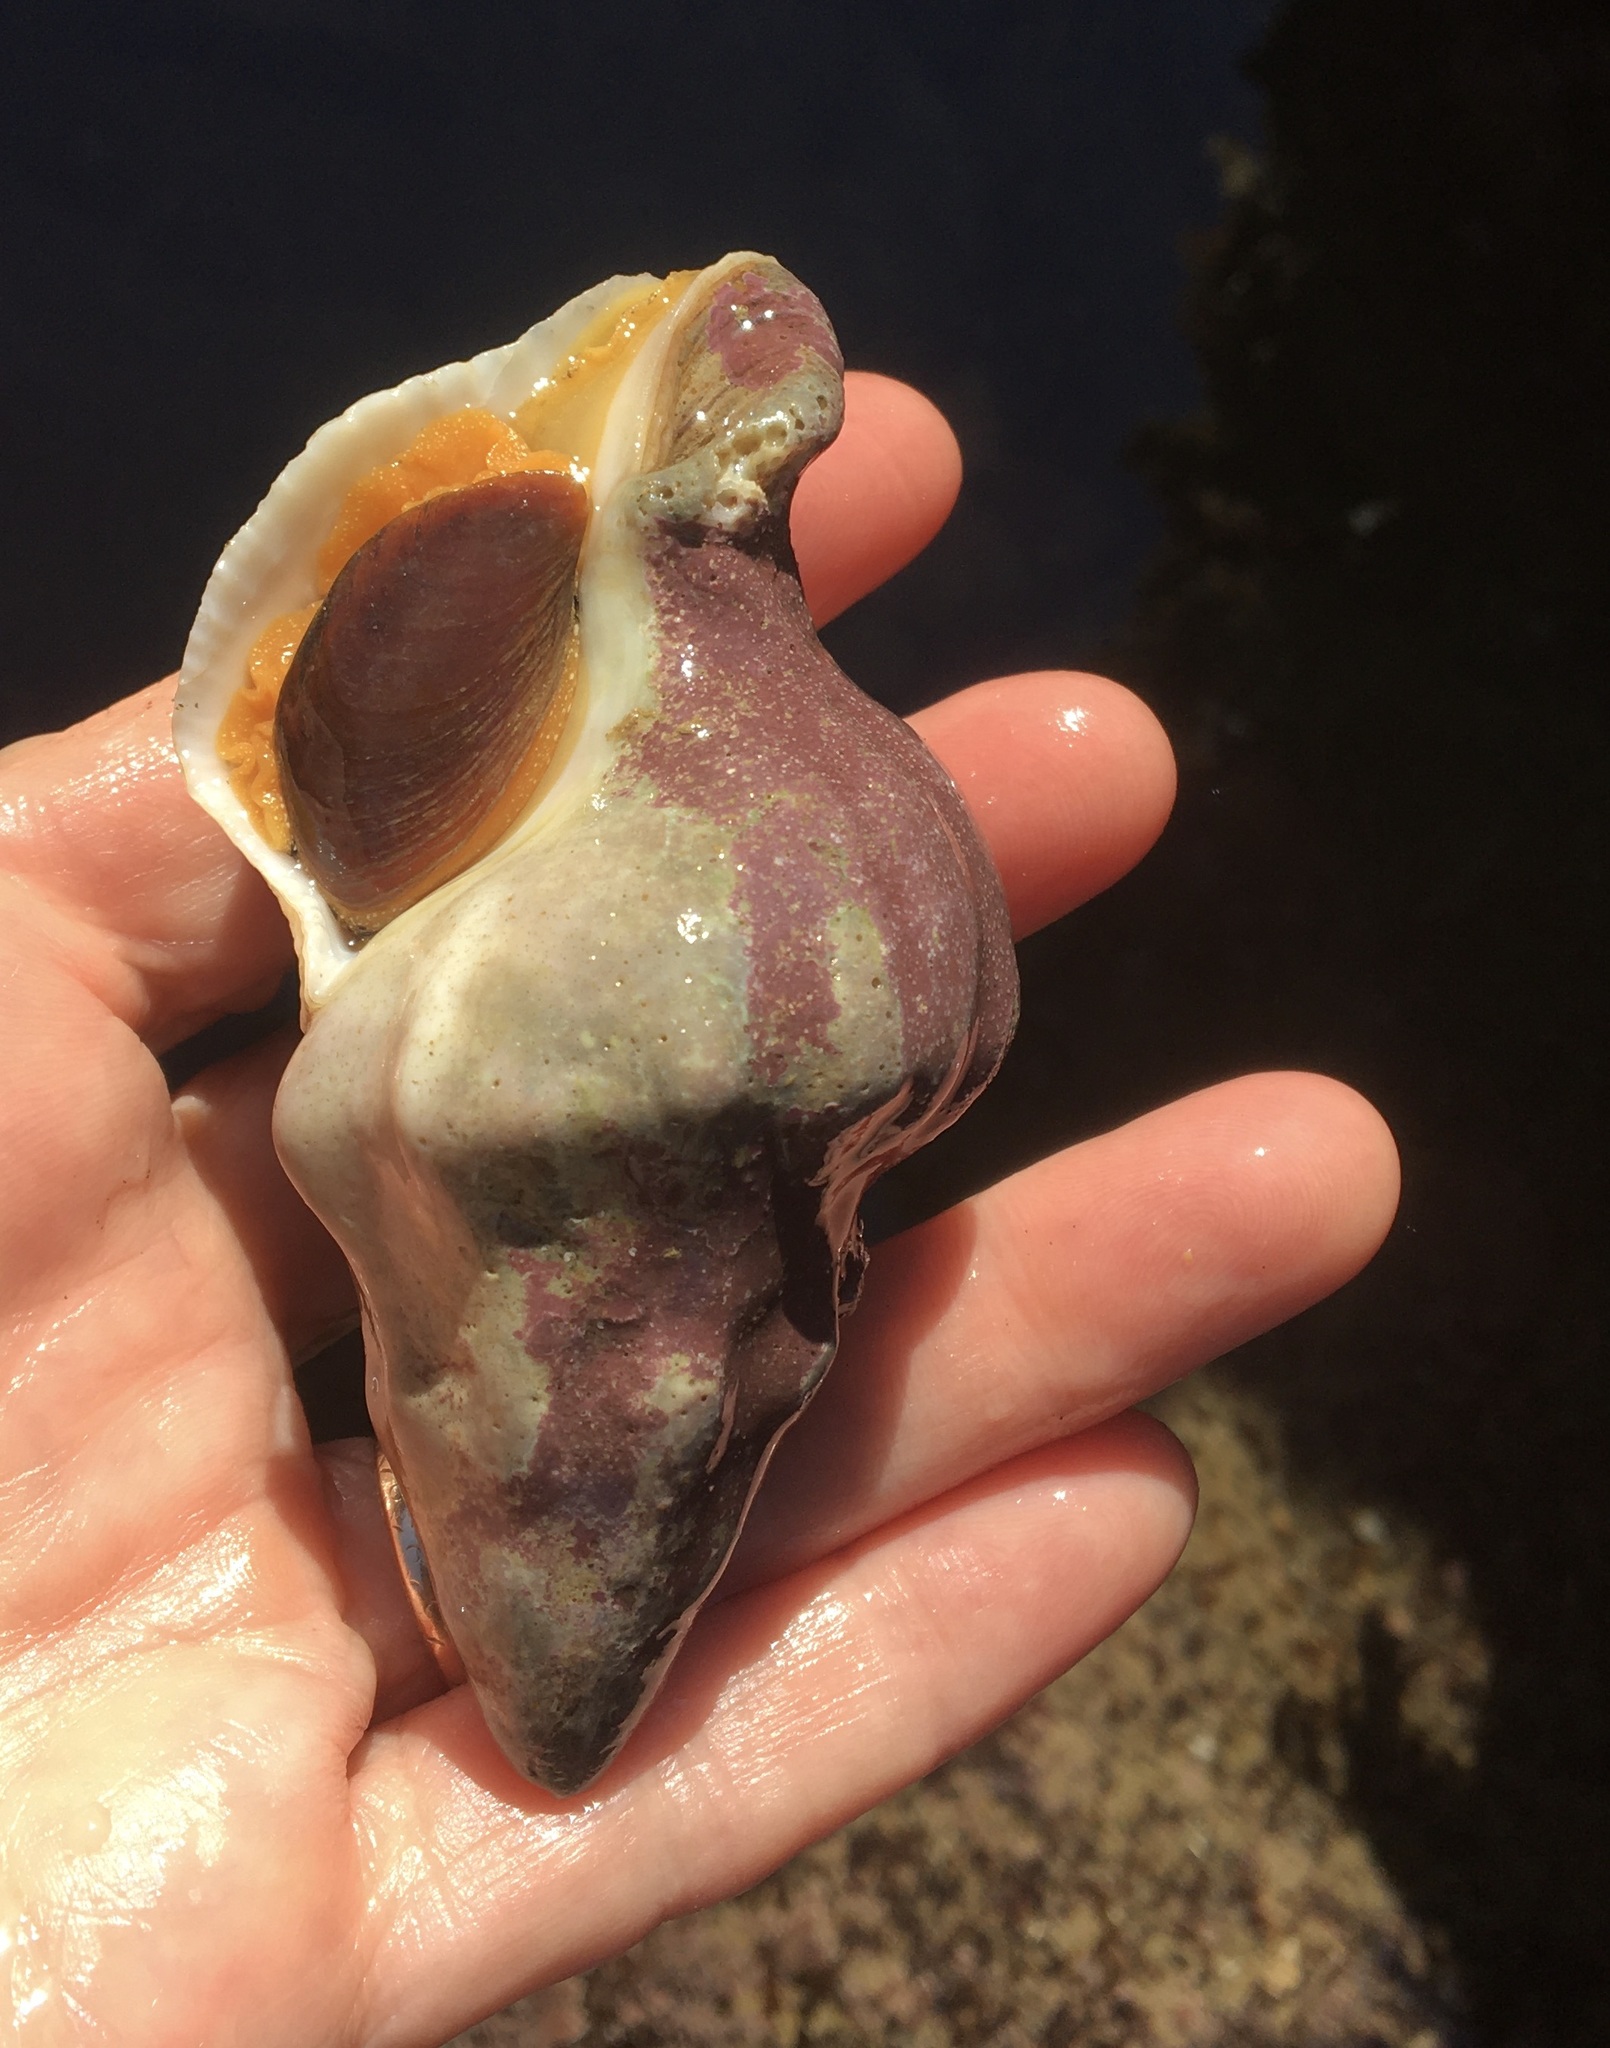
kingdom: Animalia
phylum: Mollusca
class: Gastropoda
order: Neogastropoda
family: Austrosiphonidae
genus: Kelletia
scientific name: Kelletia kelletii
